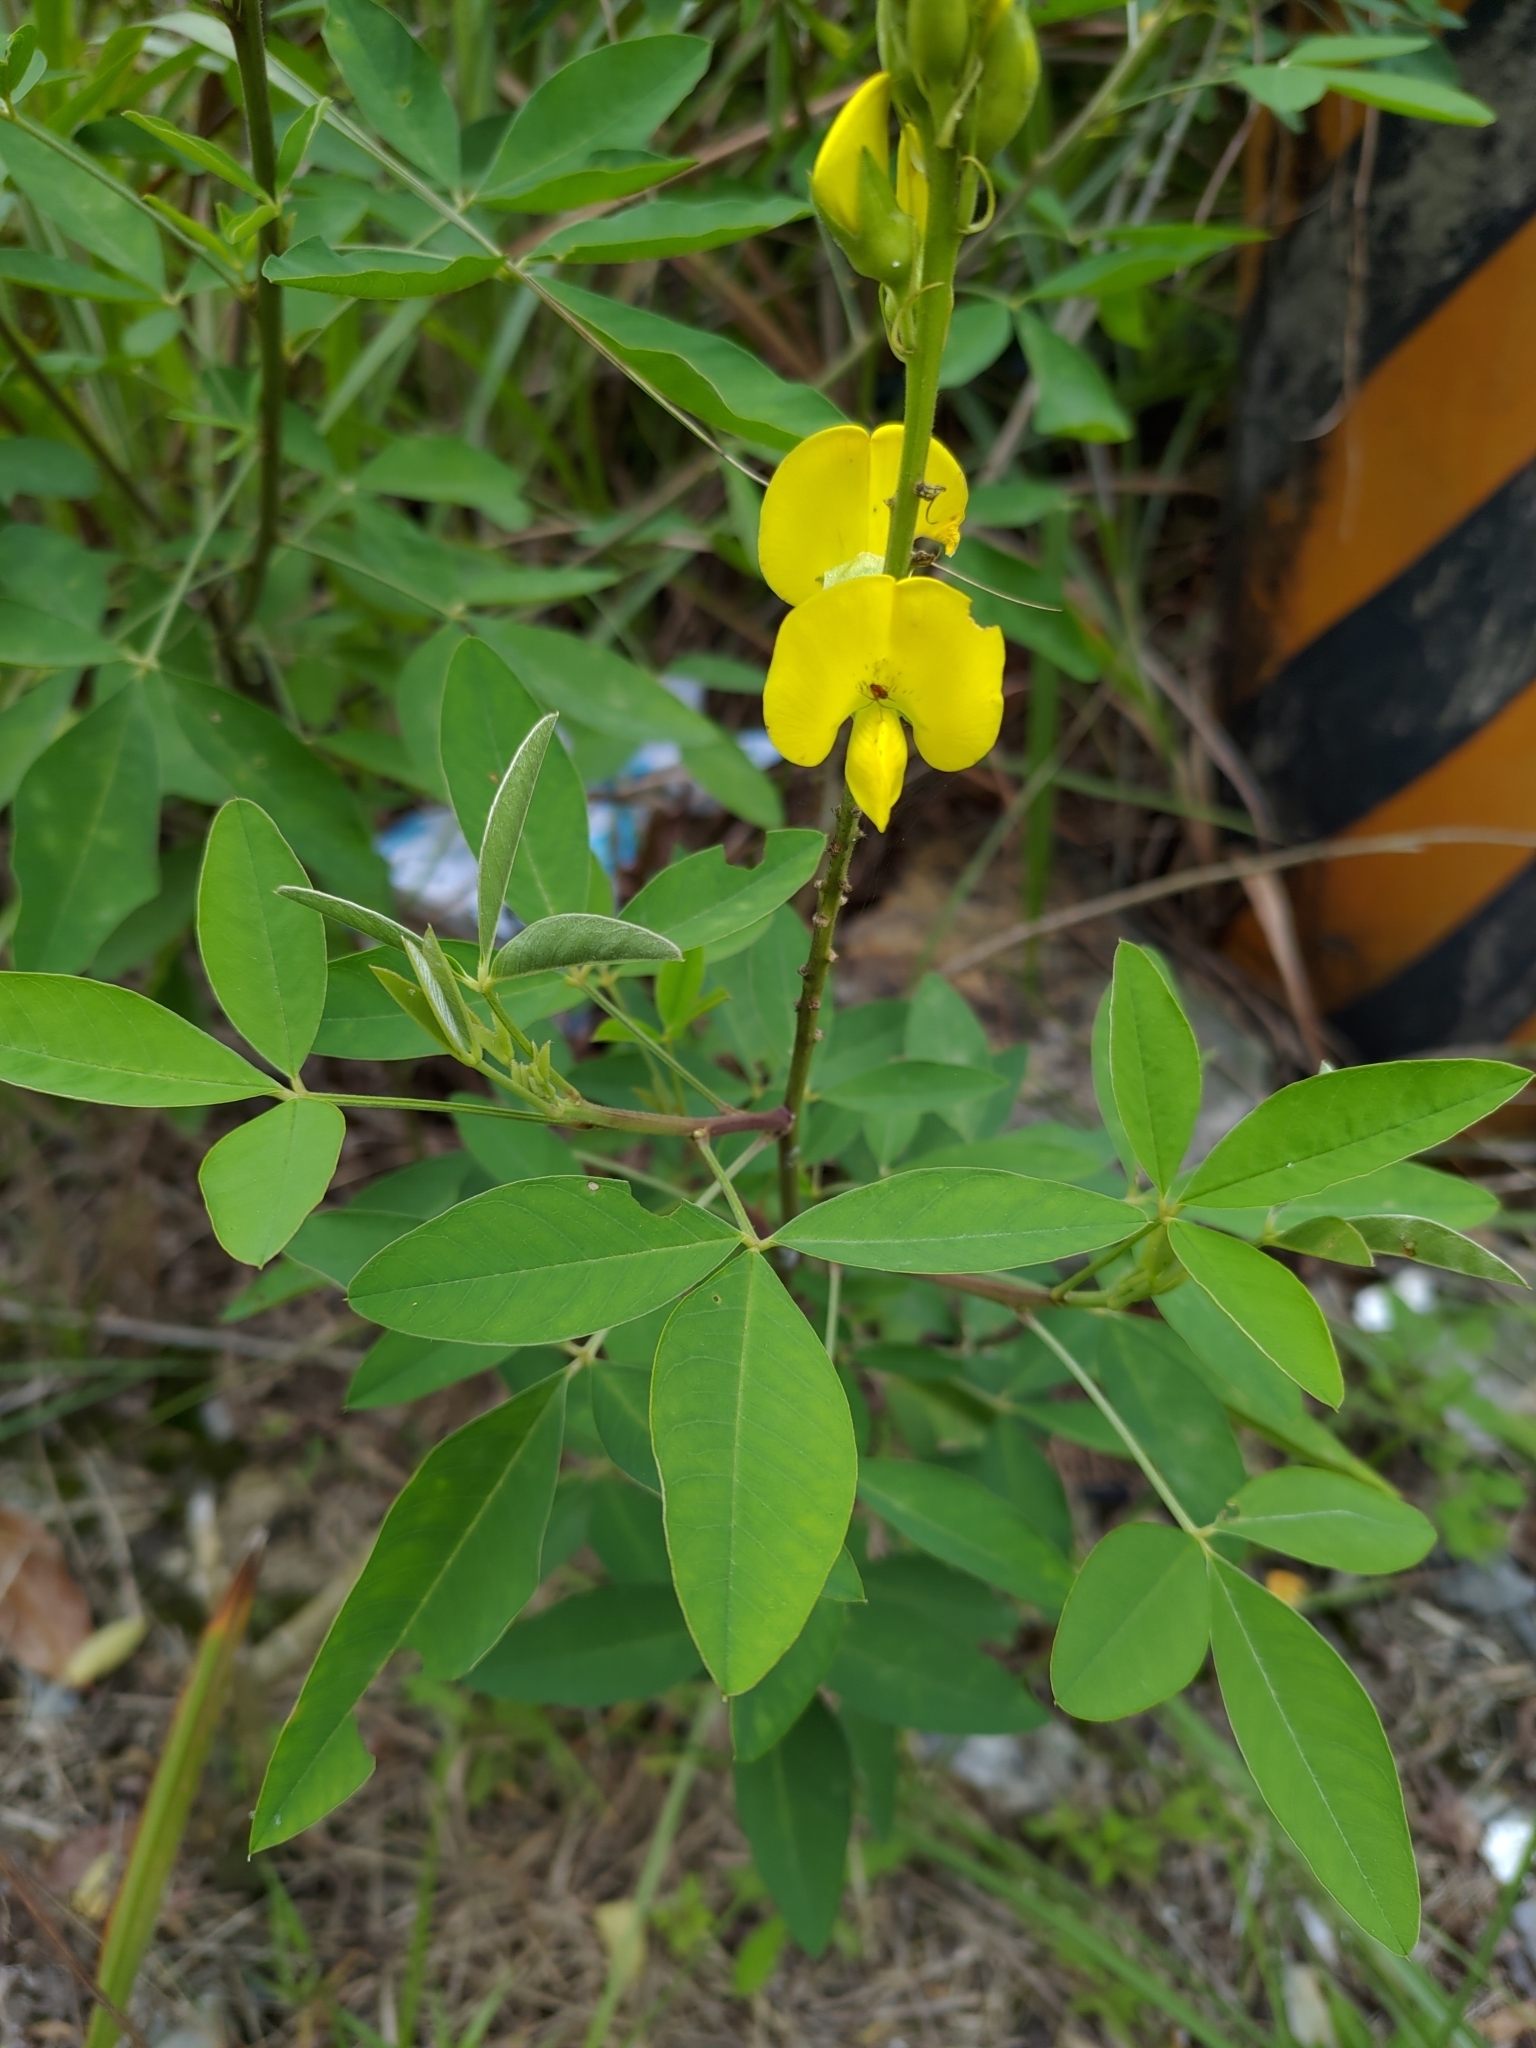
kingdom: Plantae
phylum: Tracheophyta
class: Magnoliopsida
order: Fabales
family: Fabaceae
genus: Crotalaria
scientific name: Crotalaria micans
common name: Caracas rattlebox
